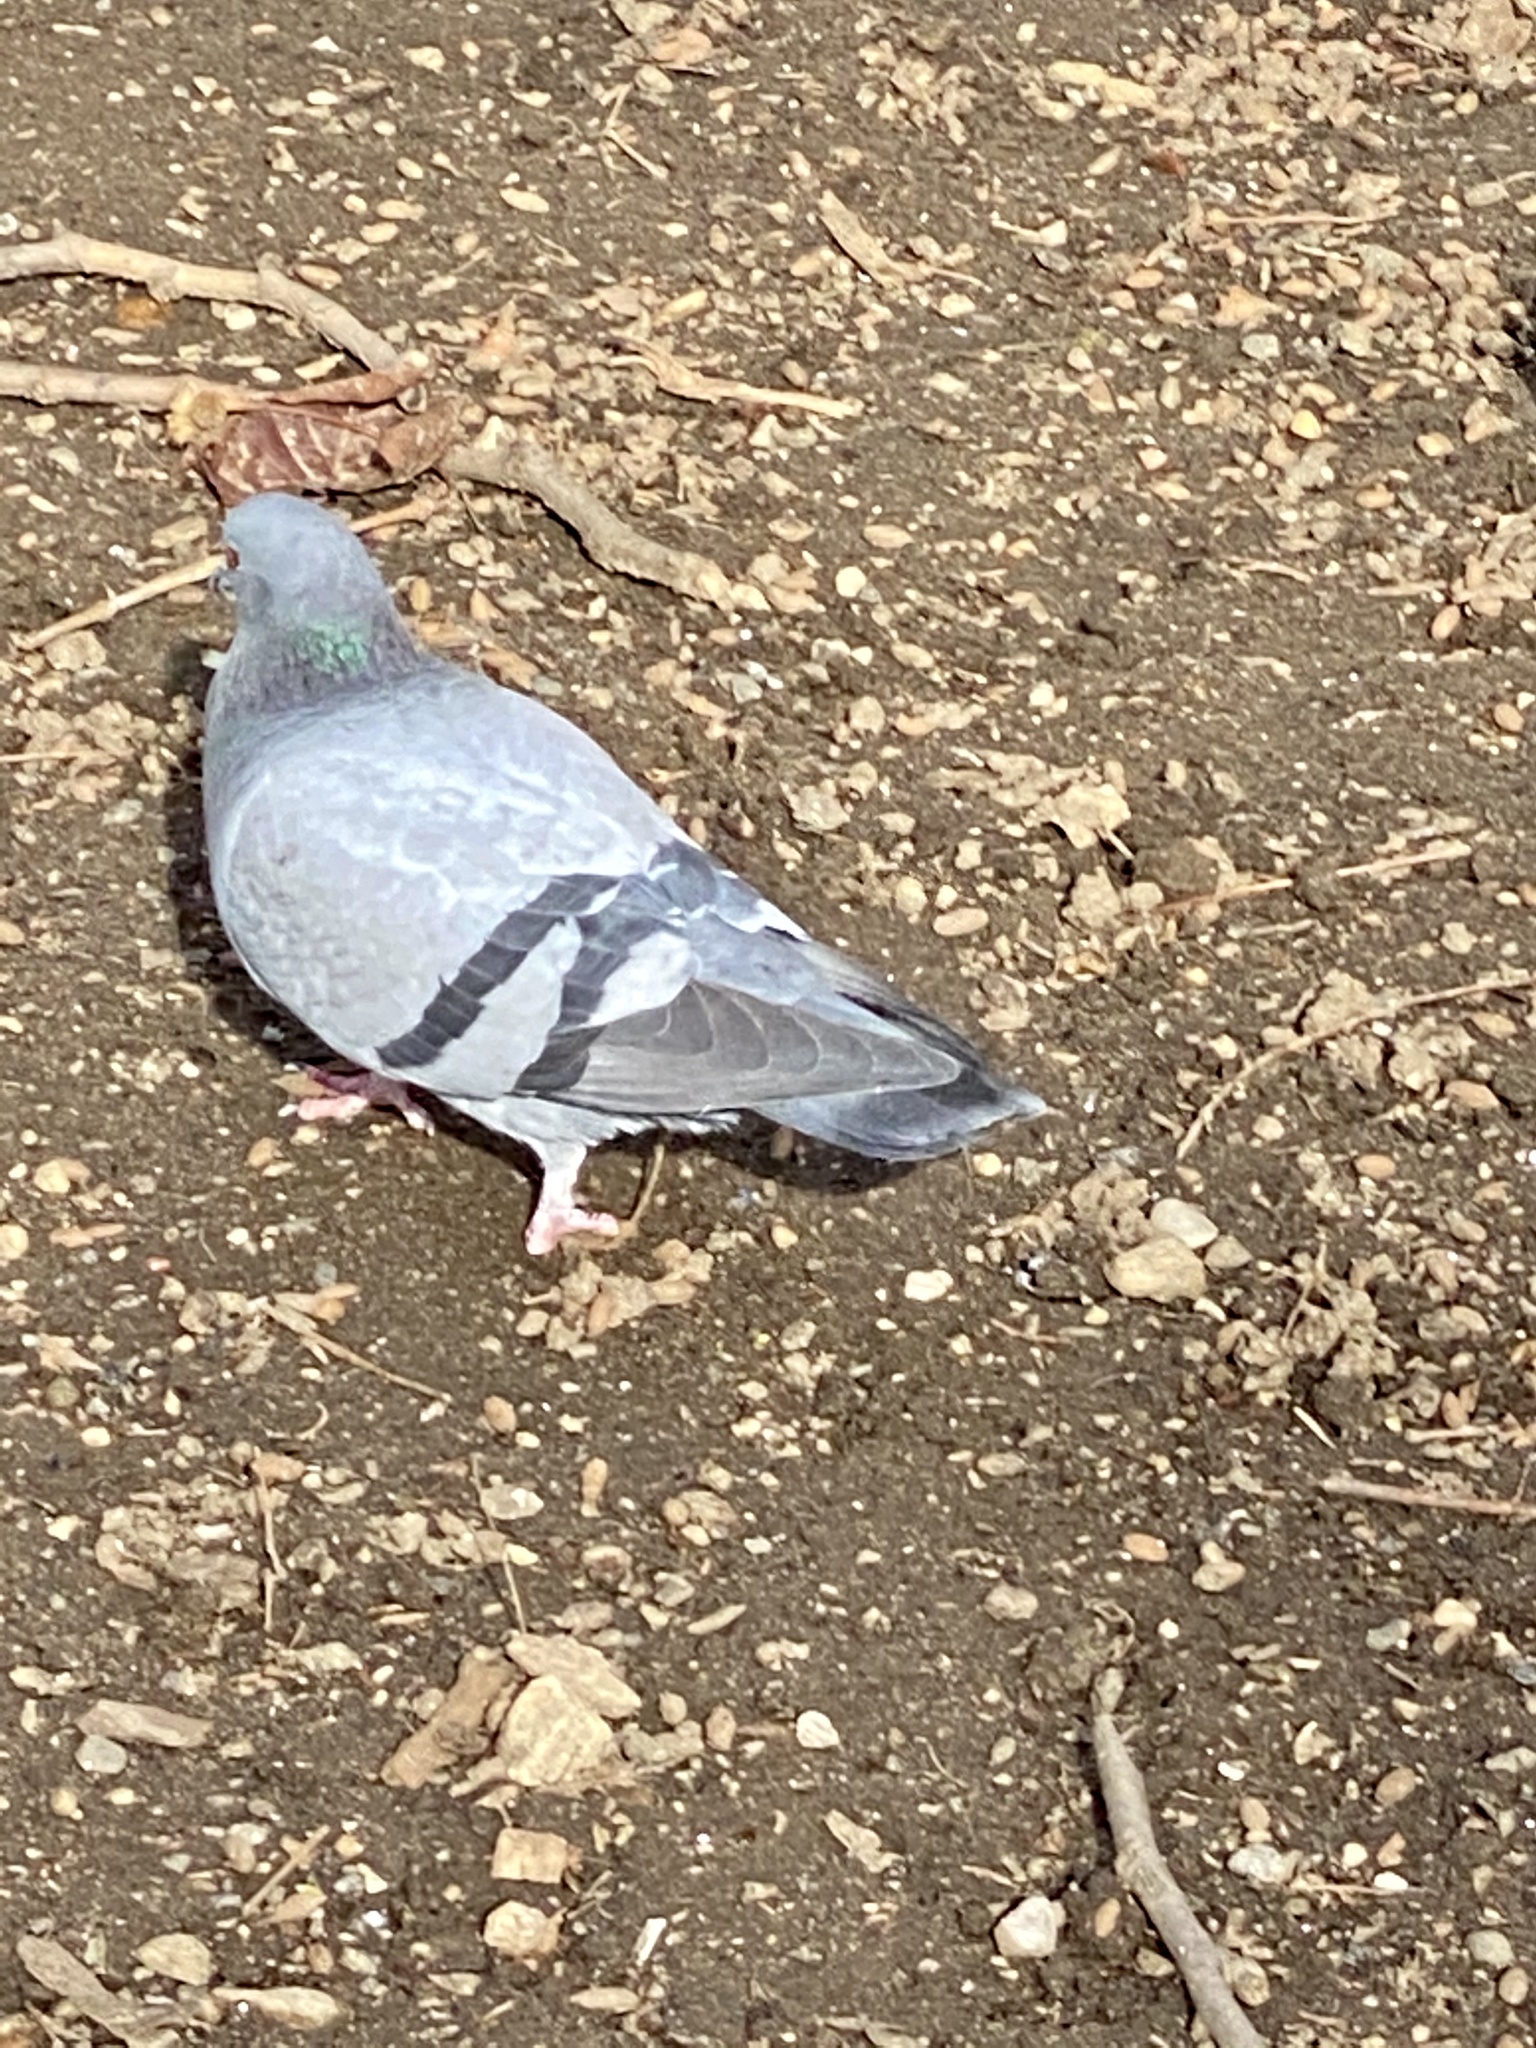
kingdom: Animalia
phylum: Chordata
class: Aves
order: Columbiformes
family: Columbidae
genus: Columba
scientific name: Columba livia
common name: Rock pigeon
